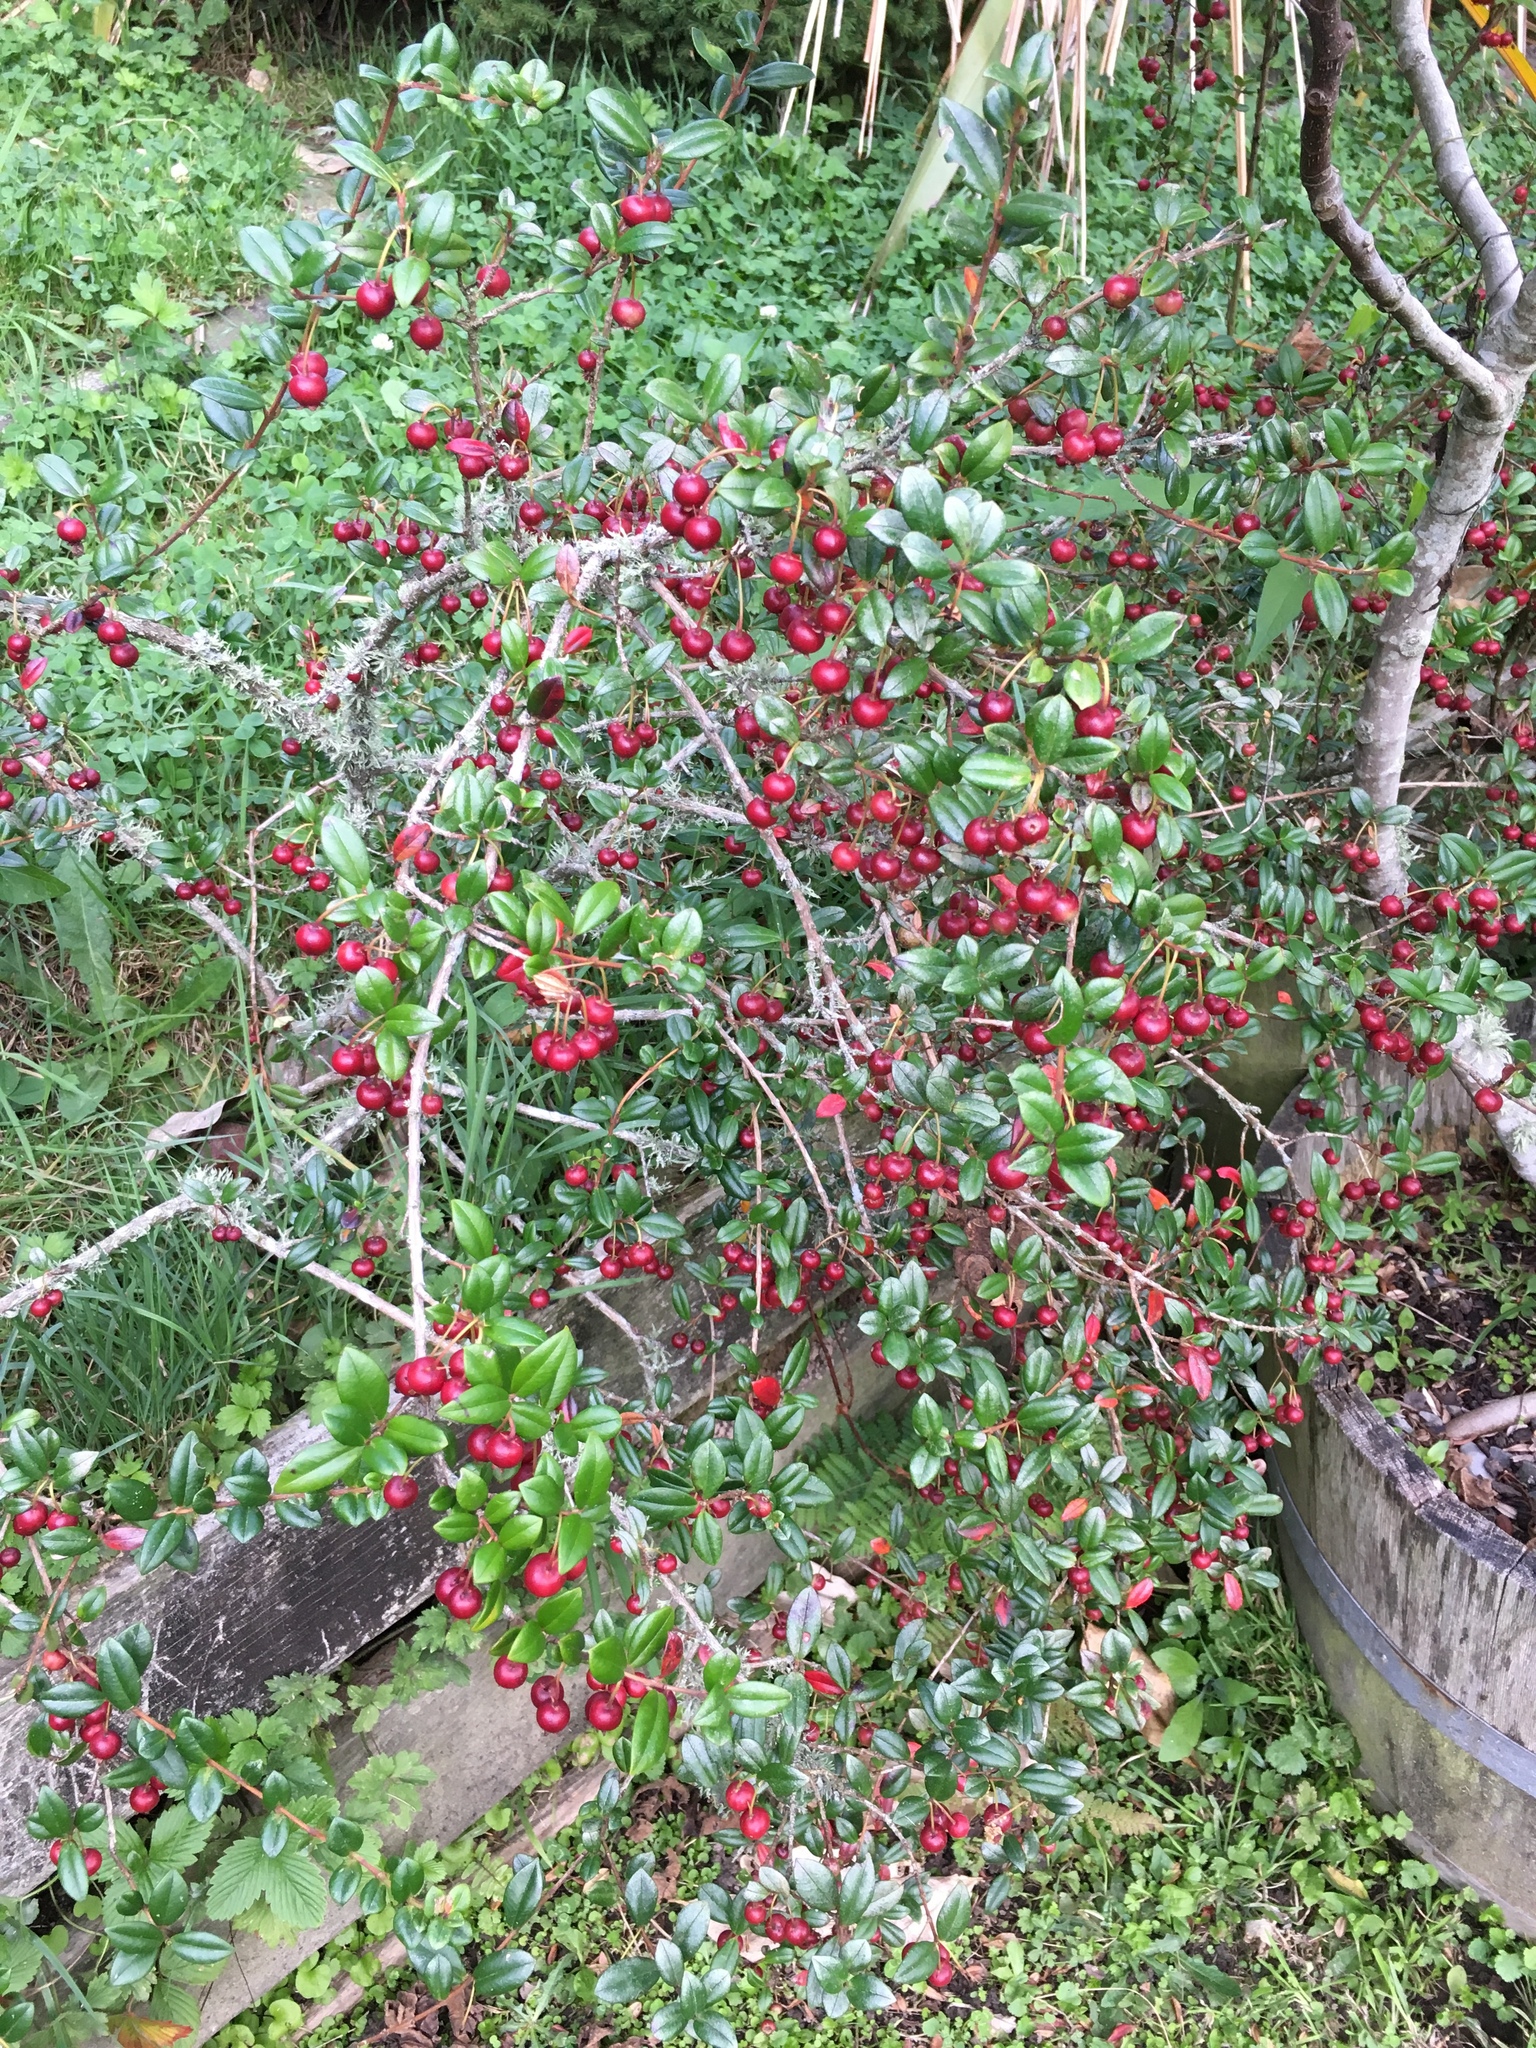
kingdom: Plantae
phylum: Tracheophyta
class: Magnoliopsida
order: Myrtales
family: Myrtaceae
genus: Ugni
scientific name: Ugni molinae
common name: Chilean-guava
